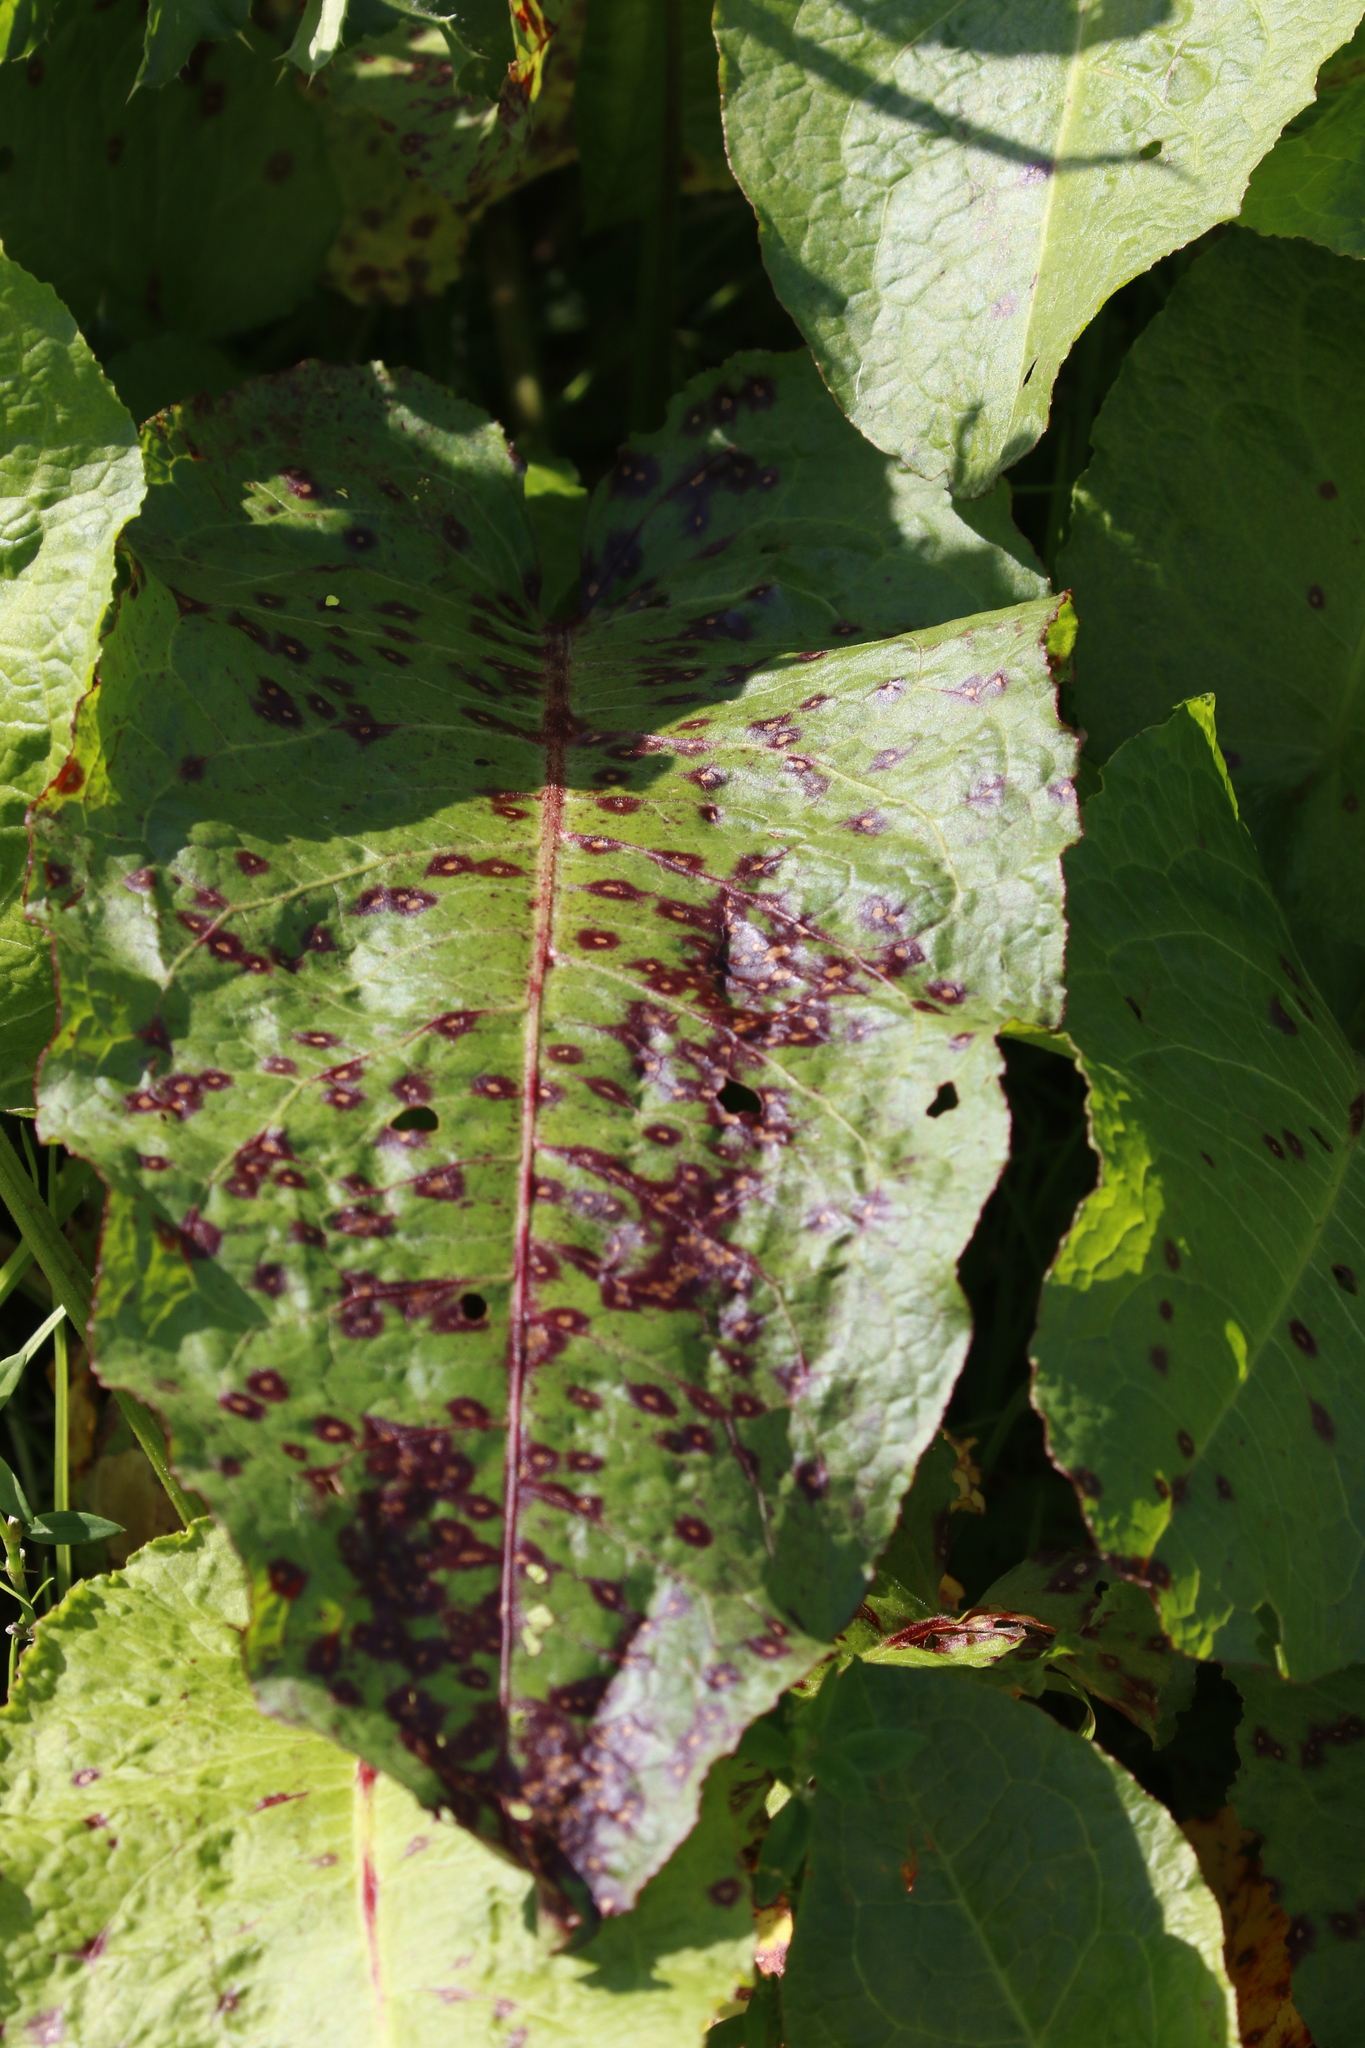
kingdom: Fungi
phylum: Ascomycota
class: Dothideomycetes
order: Mycosphaerellales
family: Mycosphaerellaceae
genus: Ramularia
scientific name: Ramularia rubella
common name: Red dock spot
